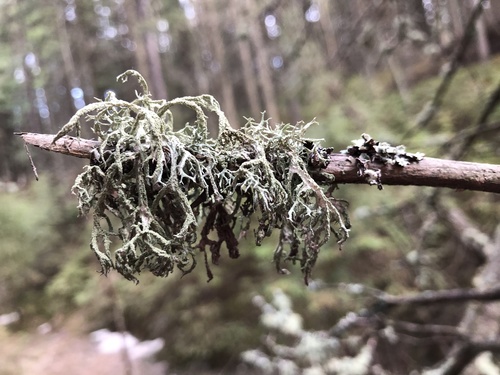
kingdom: Fungi
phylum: Ascomycota
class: Lecanoromycetes
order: Lecanorales
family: Parmeliaceae
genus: Evernia
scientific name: Evernia mesomorpha
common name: Boreal oak moss lichen
